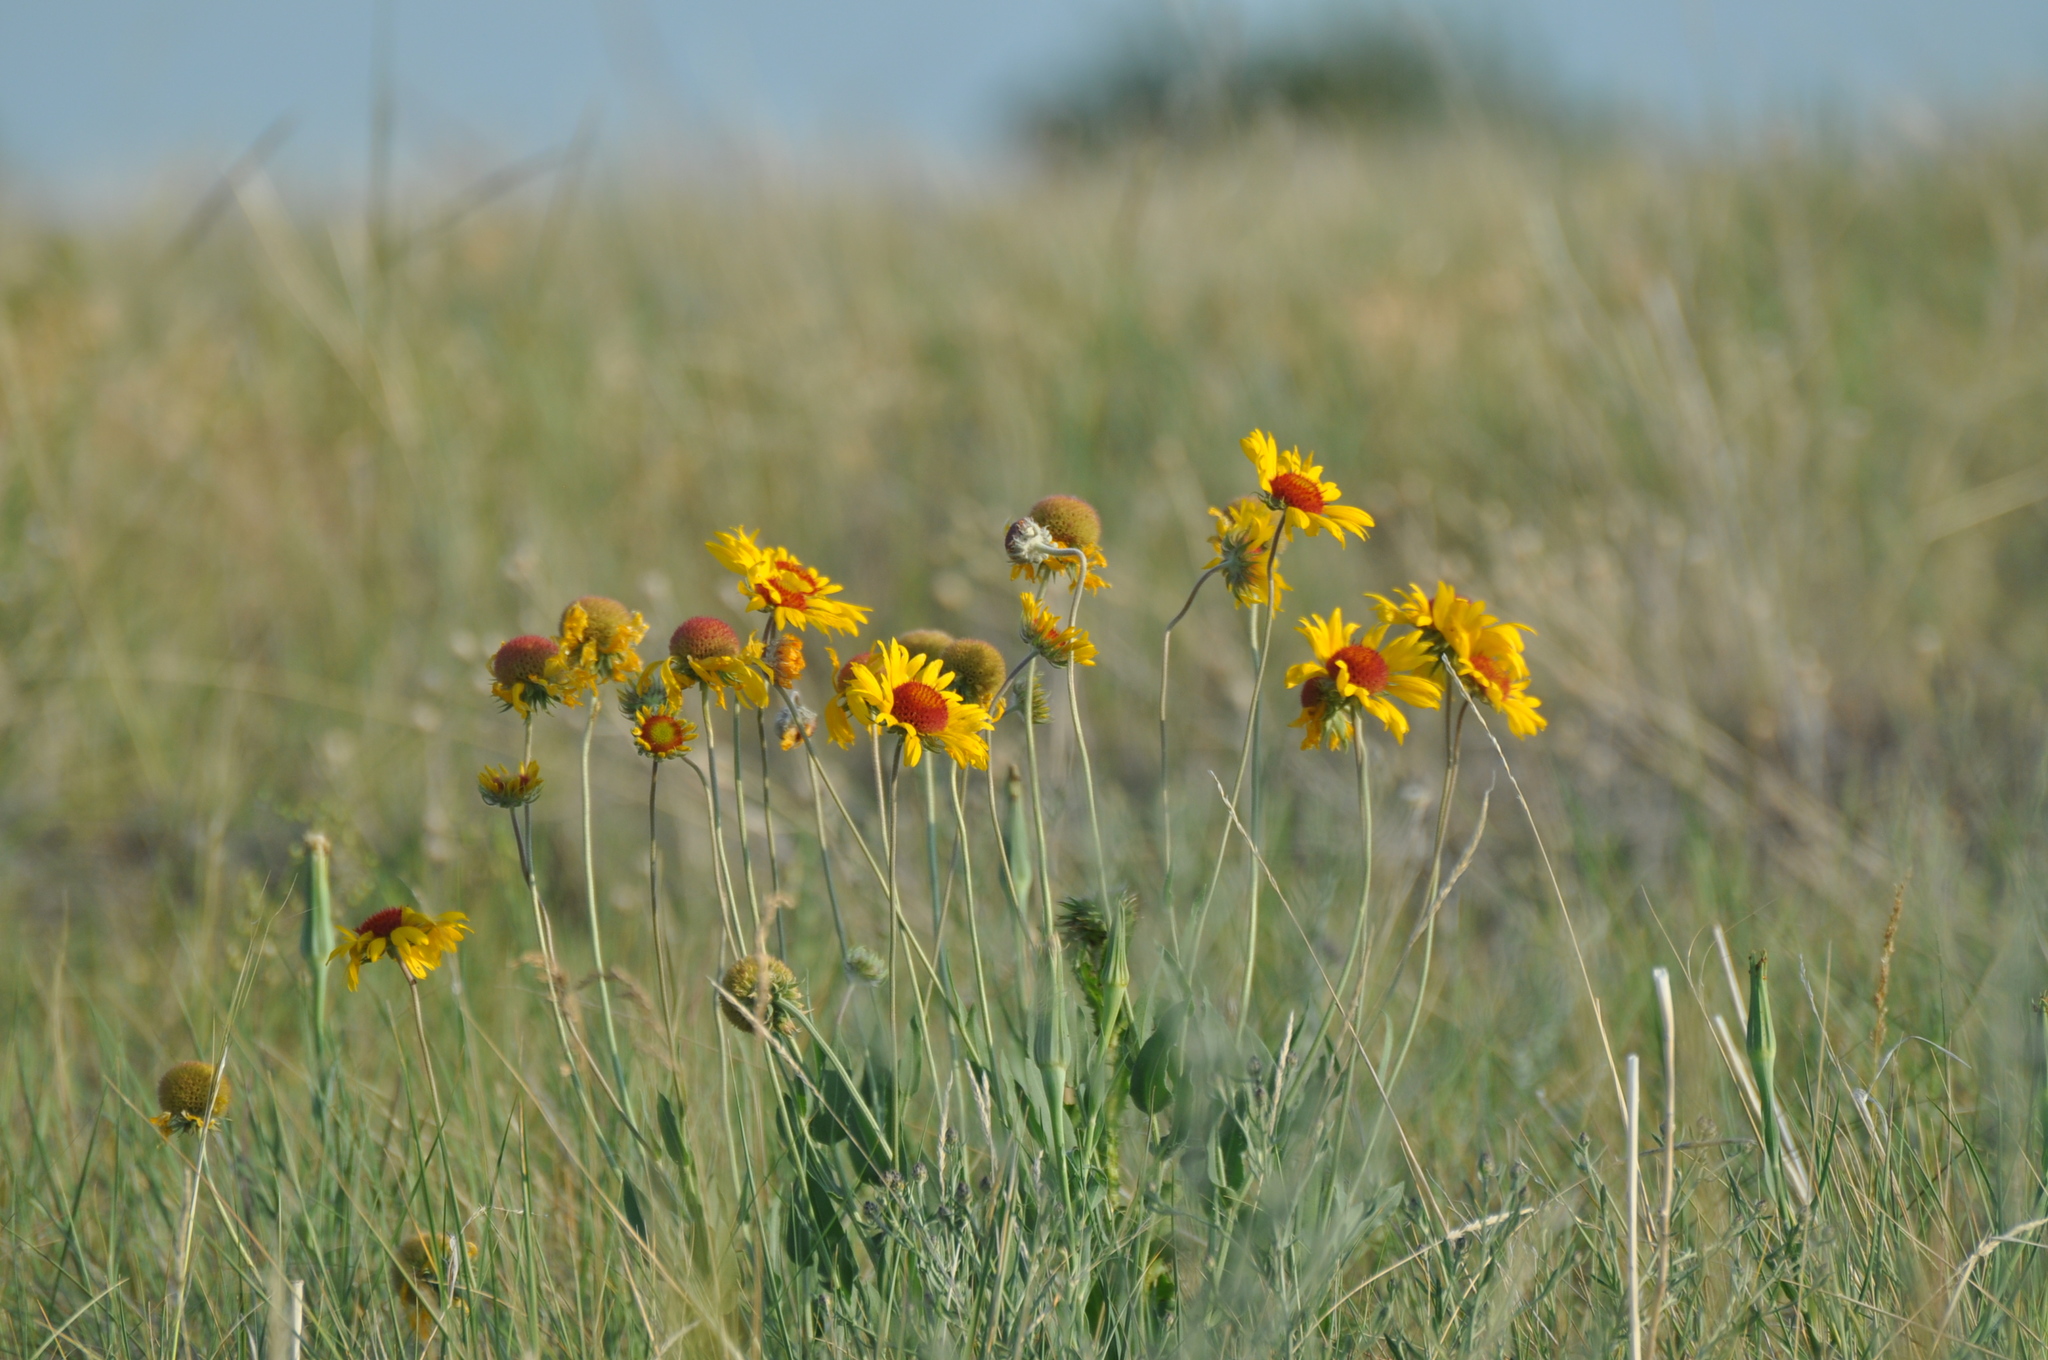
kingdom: Plantae
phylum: Tracheophyta
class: Magnoliopsida
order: Asterales
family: Asteraceae
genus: Gaillardia
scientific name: Gaillardia aristata
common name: Blanket-flower
